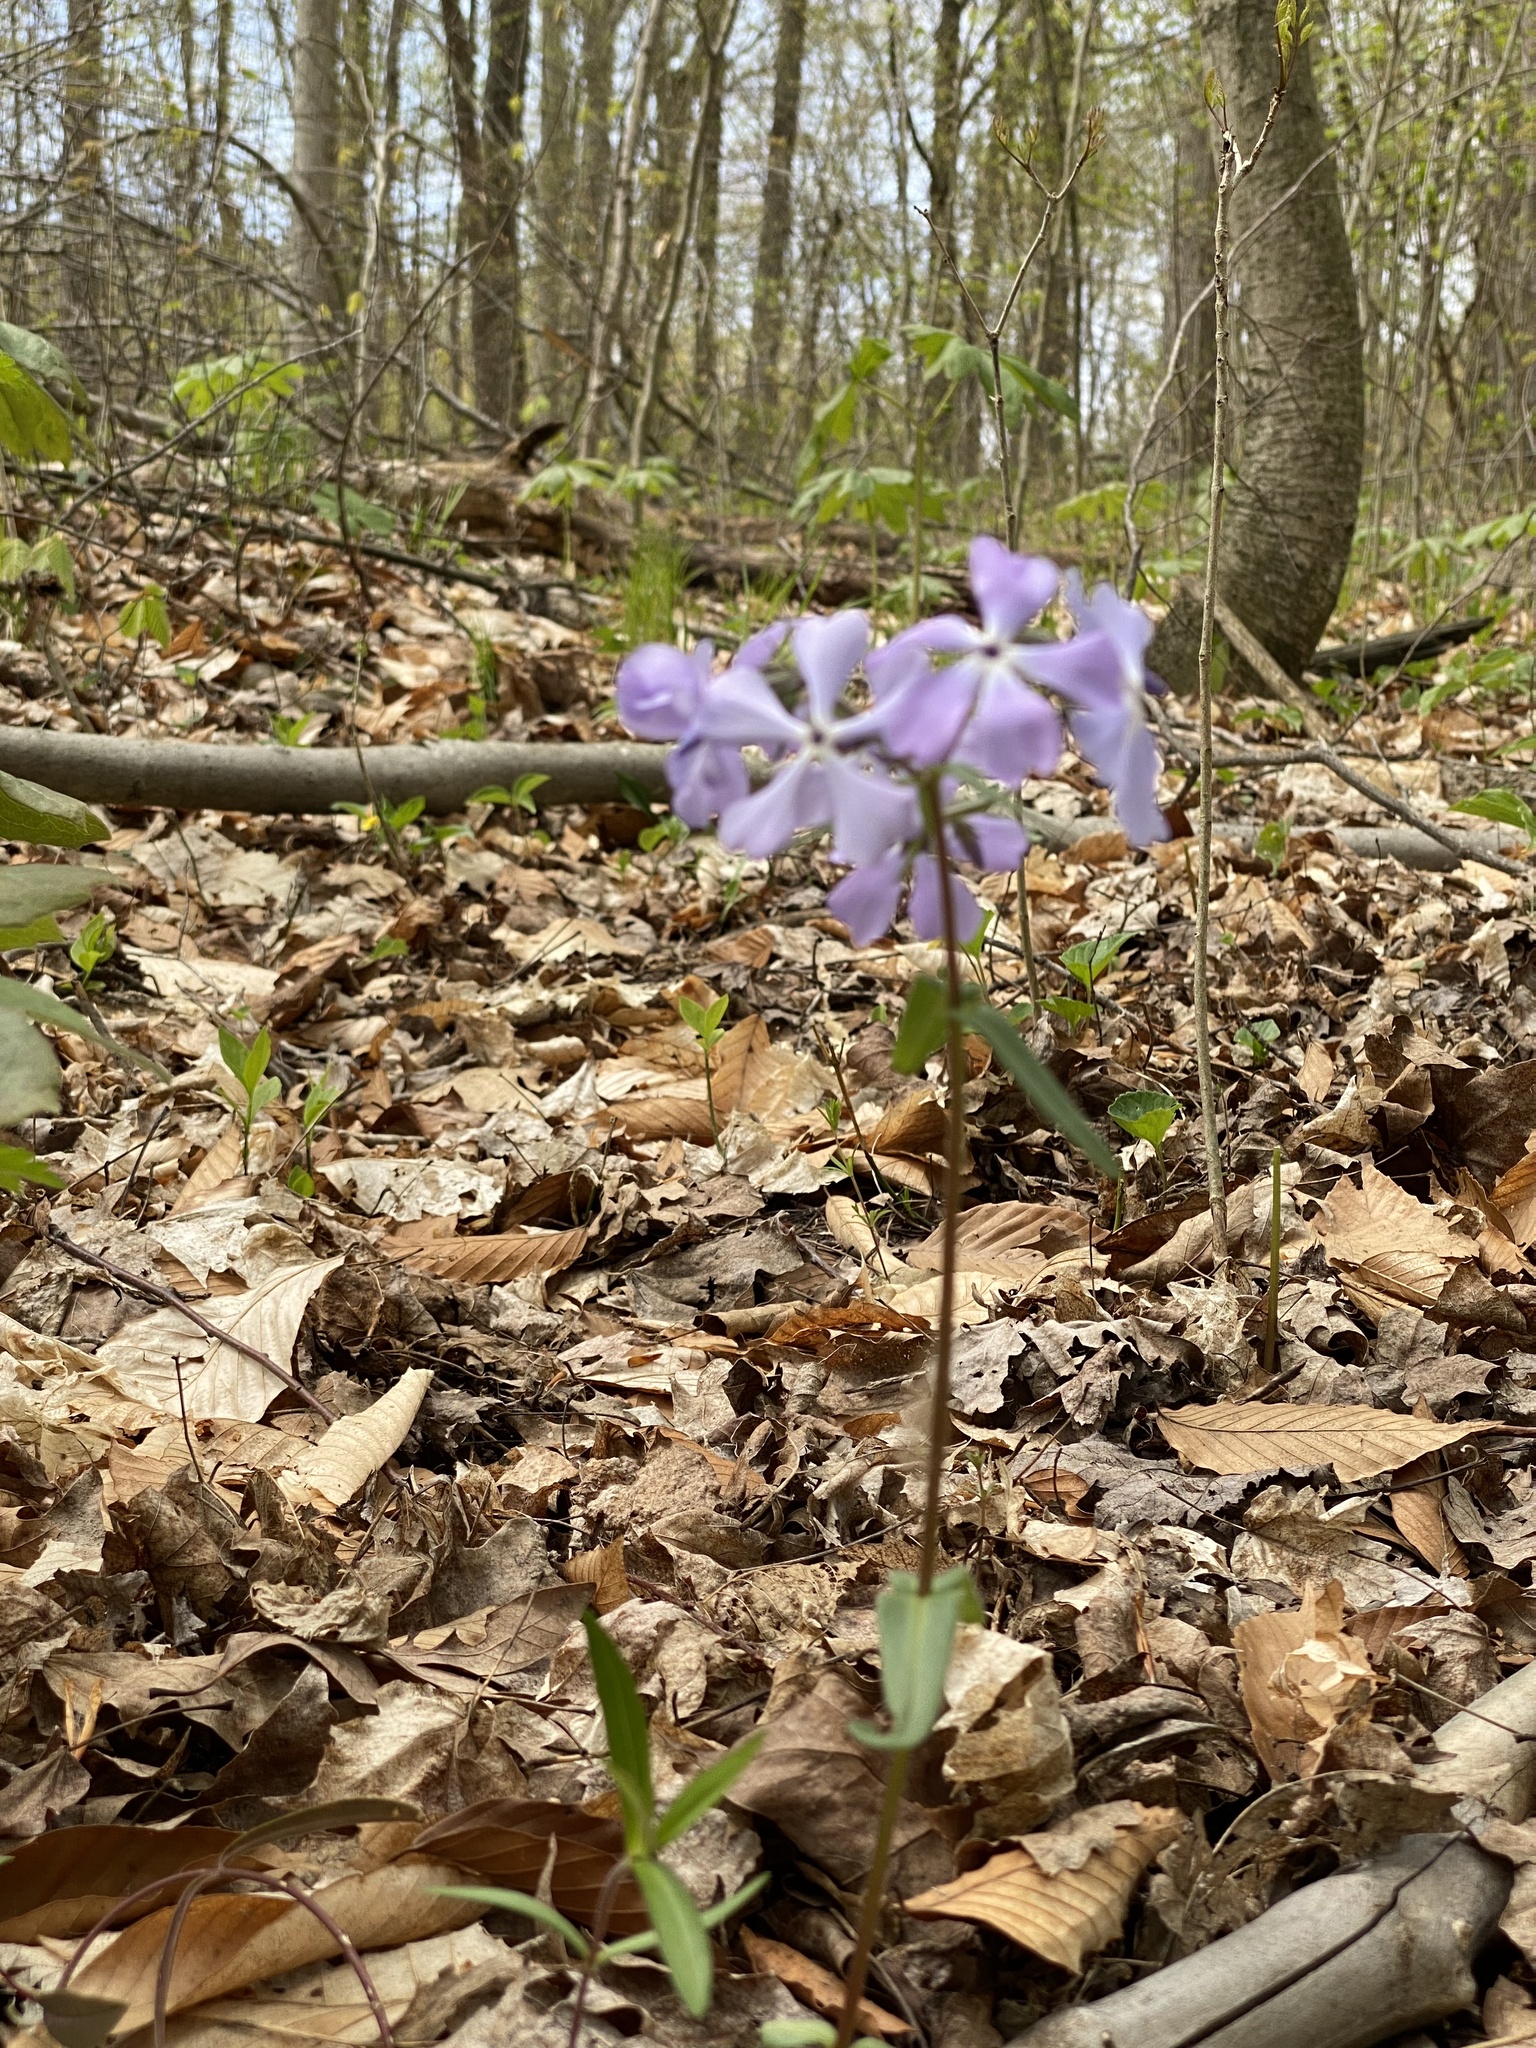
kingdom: Plantae
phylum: Tracheophyta
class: Magnoliopsida
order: Ericales
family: Polemoniaceae
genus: Phlox
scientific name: Phlox divaricata
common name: Blue phlox
